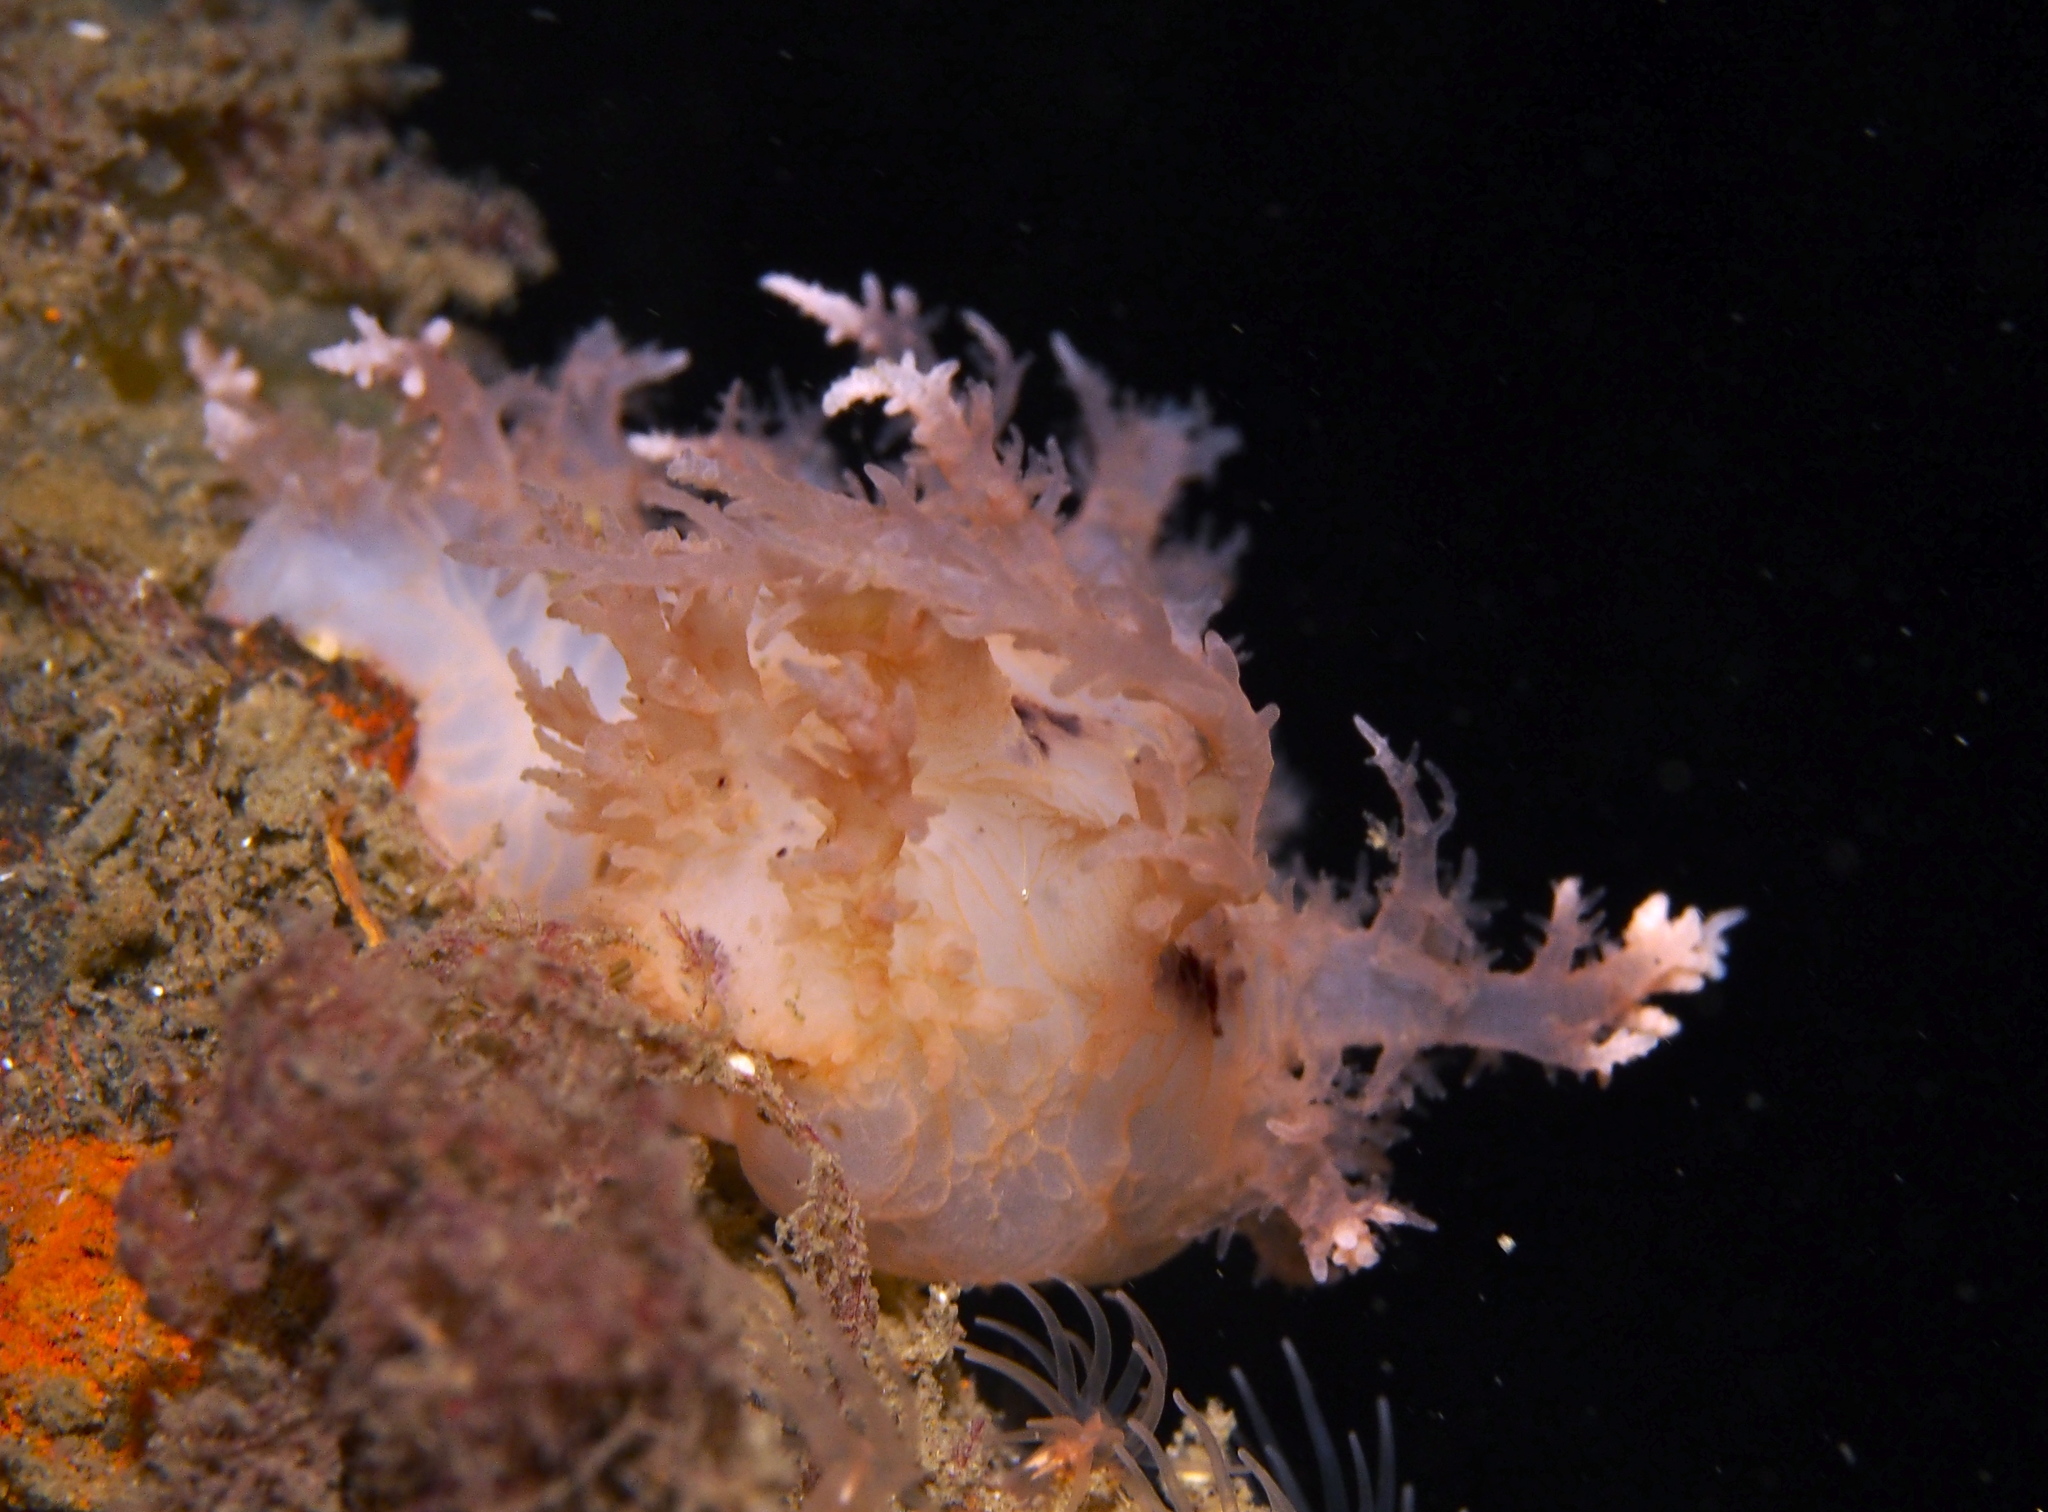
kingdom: Animalia
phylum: Mollusca
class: Gastropoda
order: Nudibranchia
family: Dendronotidae
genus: Dendronotus
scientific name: Dendronotus europaeus
